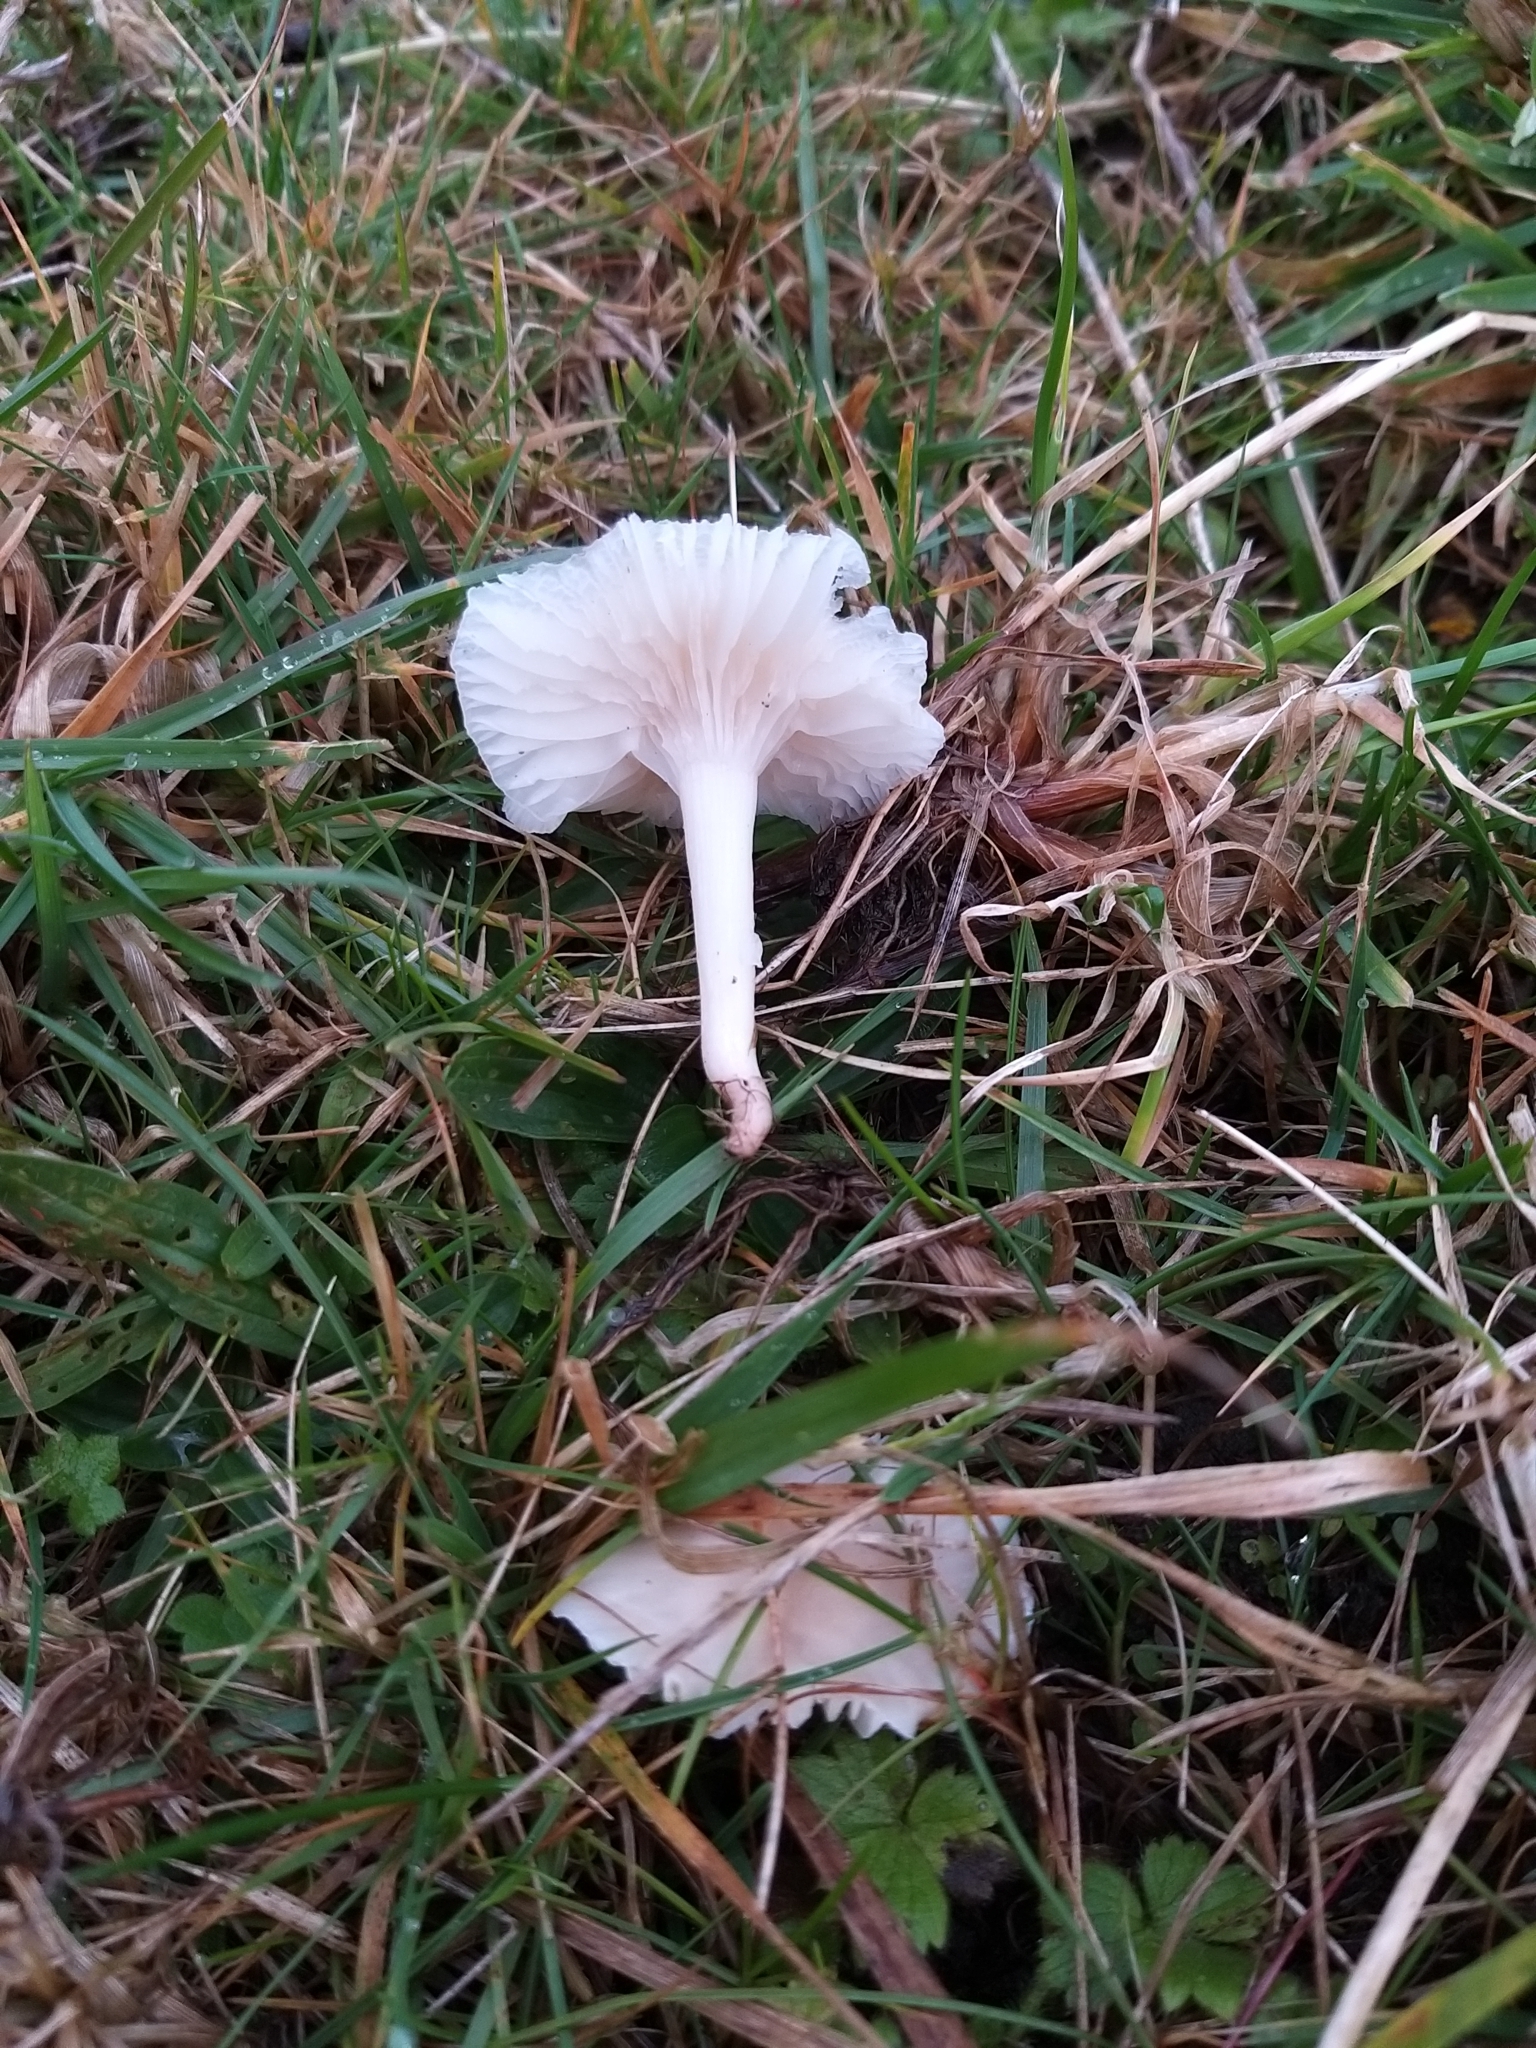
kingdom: Fungi
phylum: Basidiomycota
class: Agaricomycetes
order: Agaricales
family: Hygrophoraceae
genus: Cuphophyllus
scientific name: Cuphophyllus virgineus
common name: Snowy waxcap
